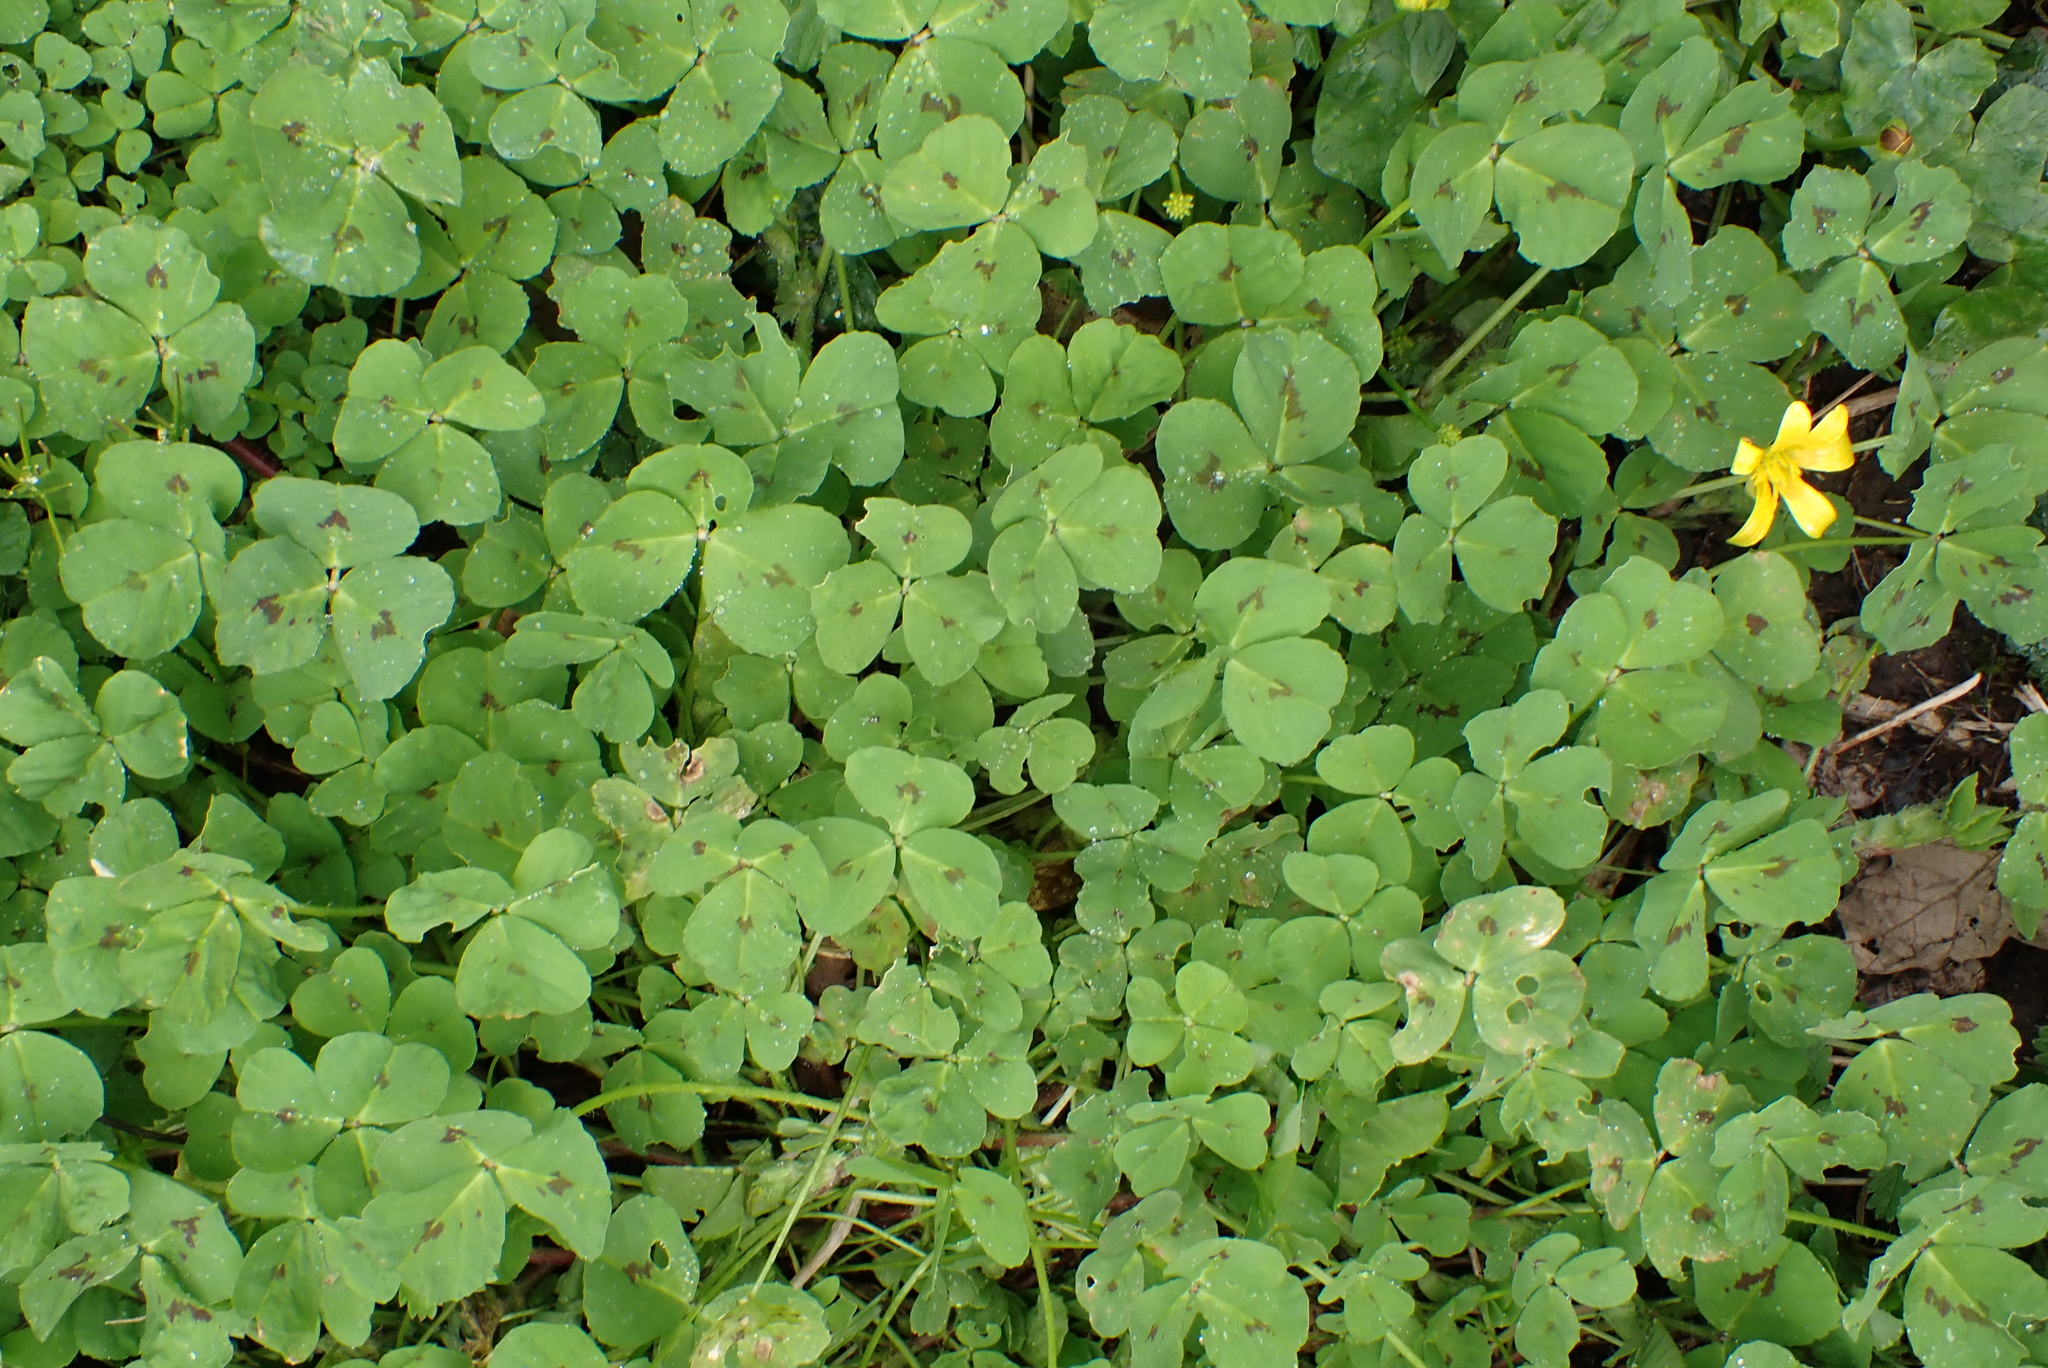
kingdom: Plantae
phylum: Tracheophyta
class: Magnoliopsida
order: Fabales
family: Fabaceae
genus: Medicago
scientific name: Medicago arabica
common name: Spotted medick
